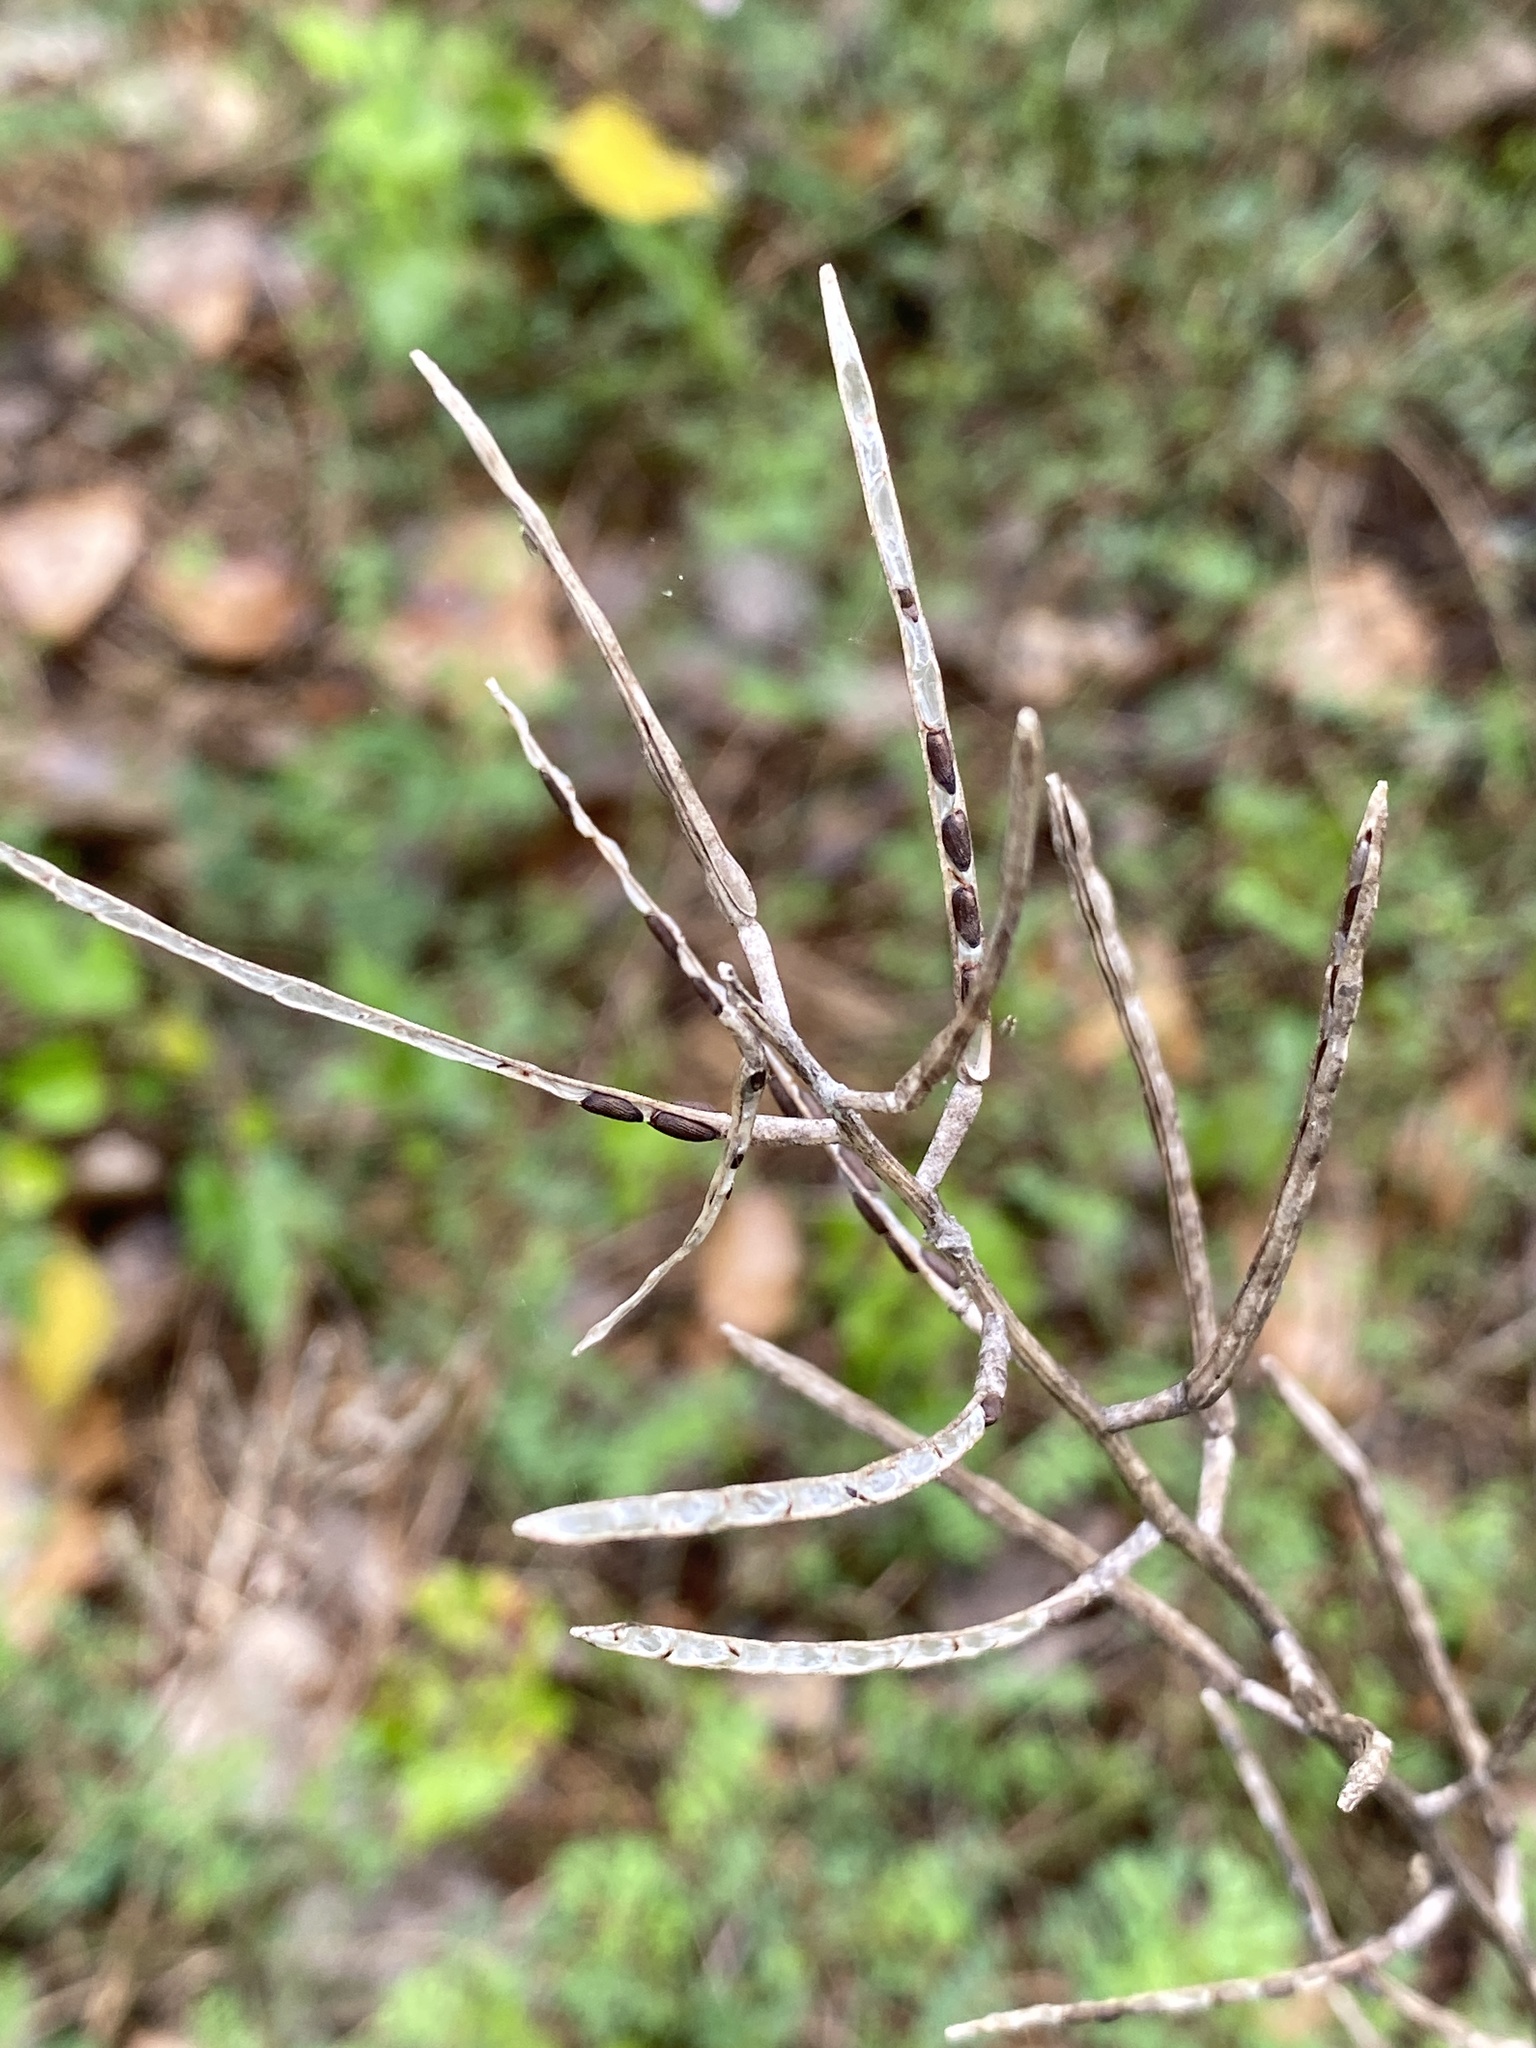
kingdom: Plantae
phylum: Tracheophyta
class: Magnoliopsida
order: Brassicales
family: Brassicaceae
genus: Alliaria
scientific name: Alliaria petiolata
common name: Garlic mustard
